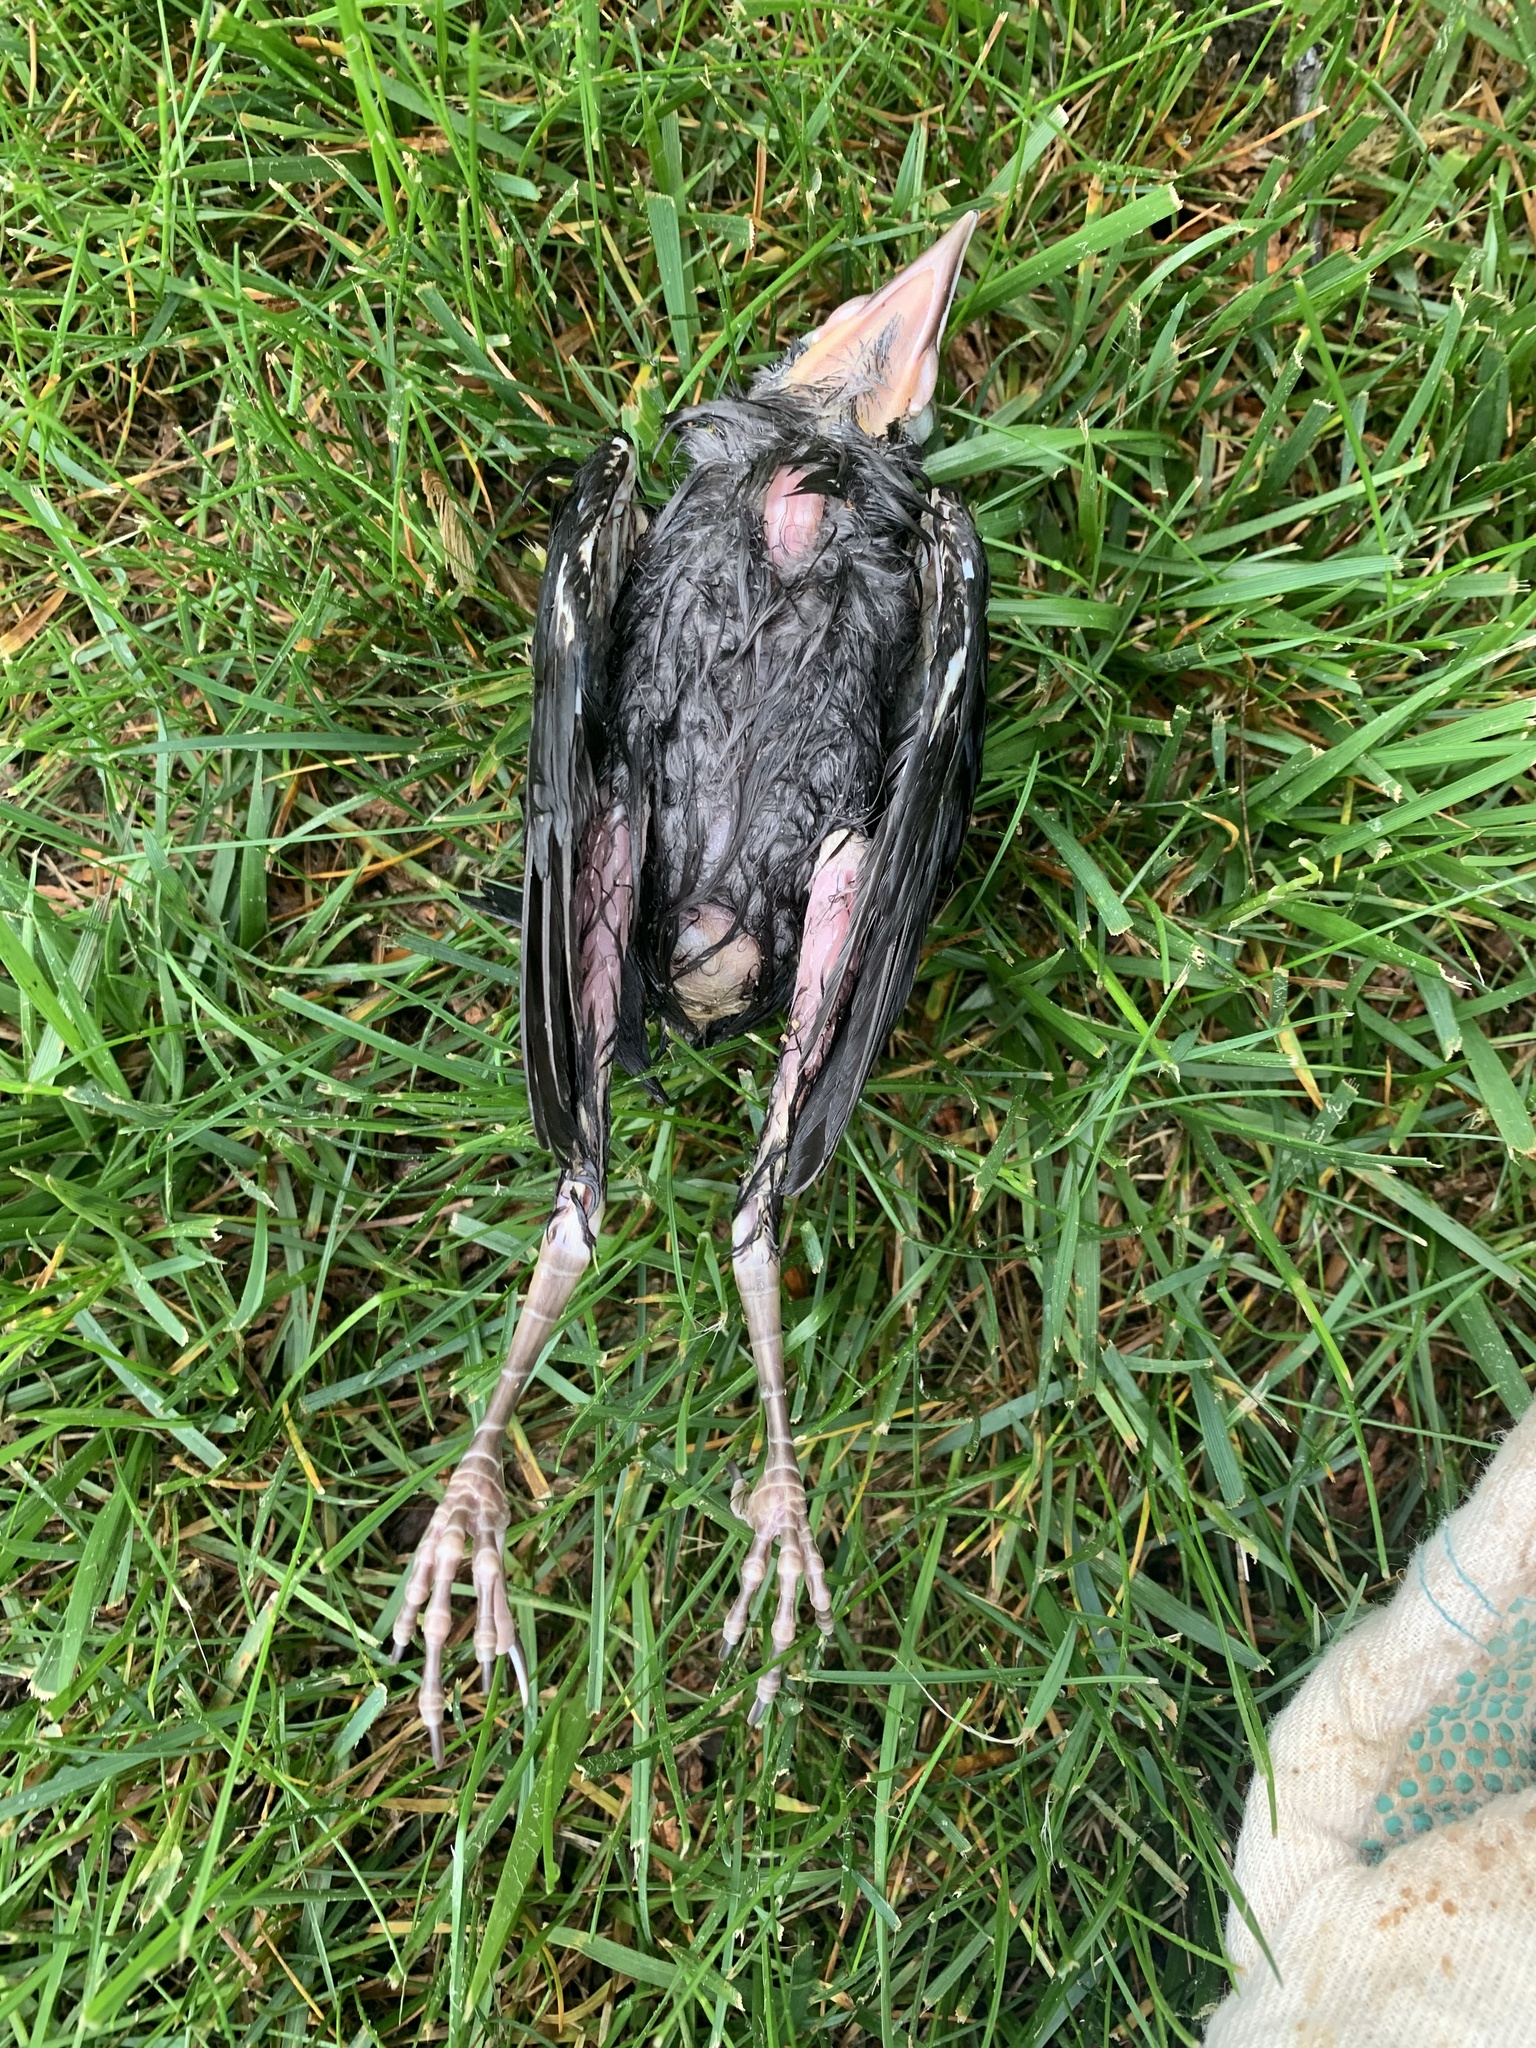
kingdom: Animalia
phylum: Chordata
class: Aves
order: Passeriformes
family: Icteridae
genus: Quiscalus
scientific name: Quiscalus quiscula
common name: Common grackle
